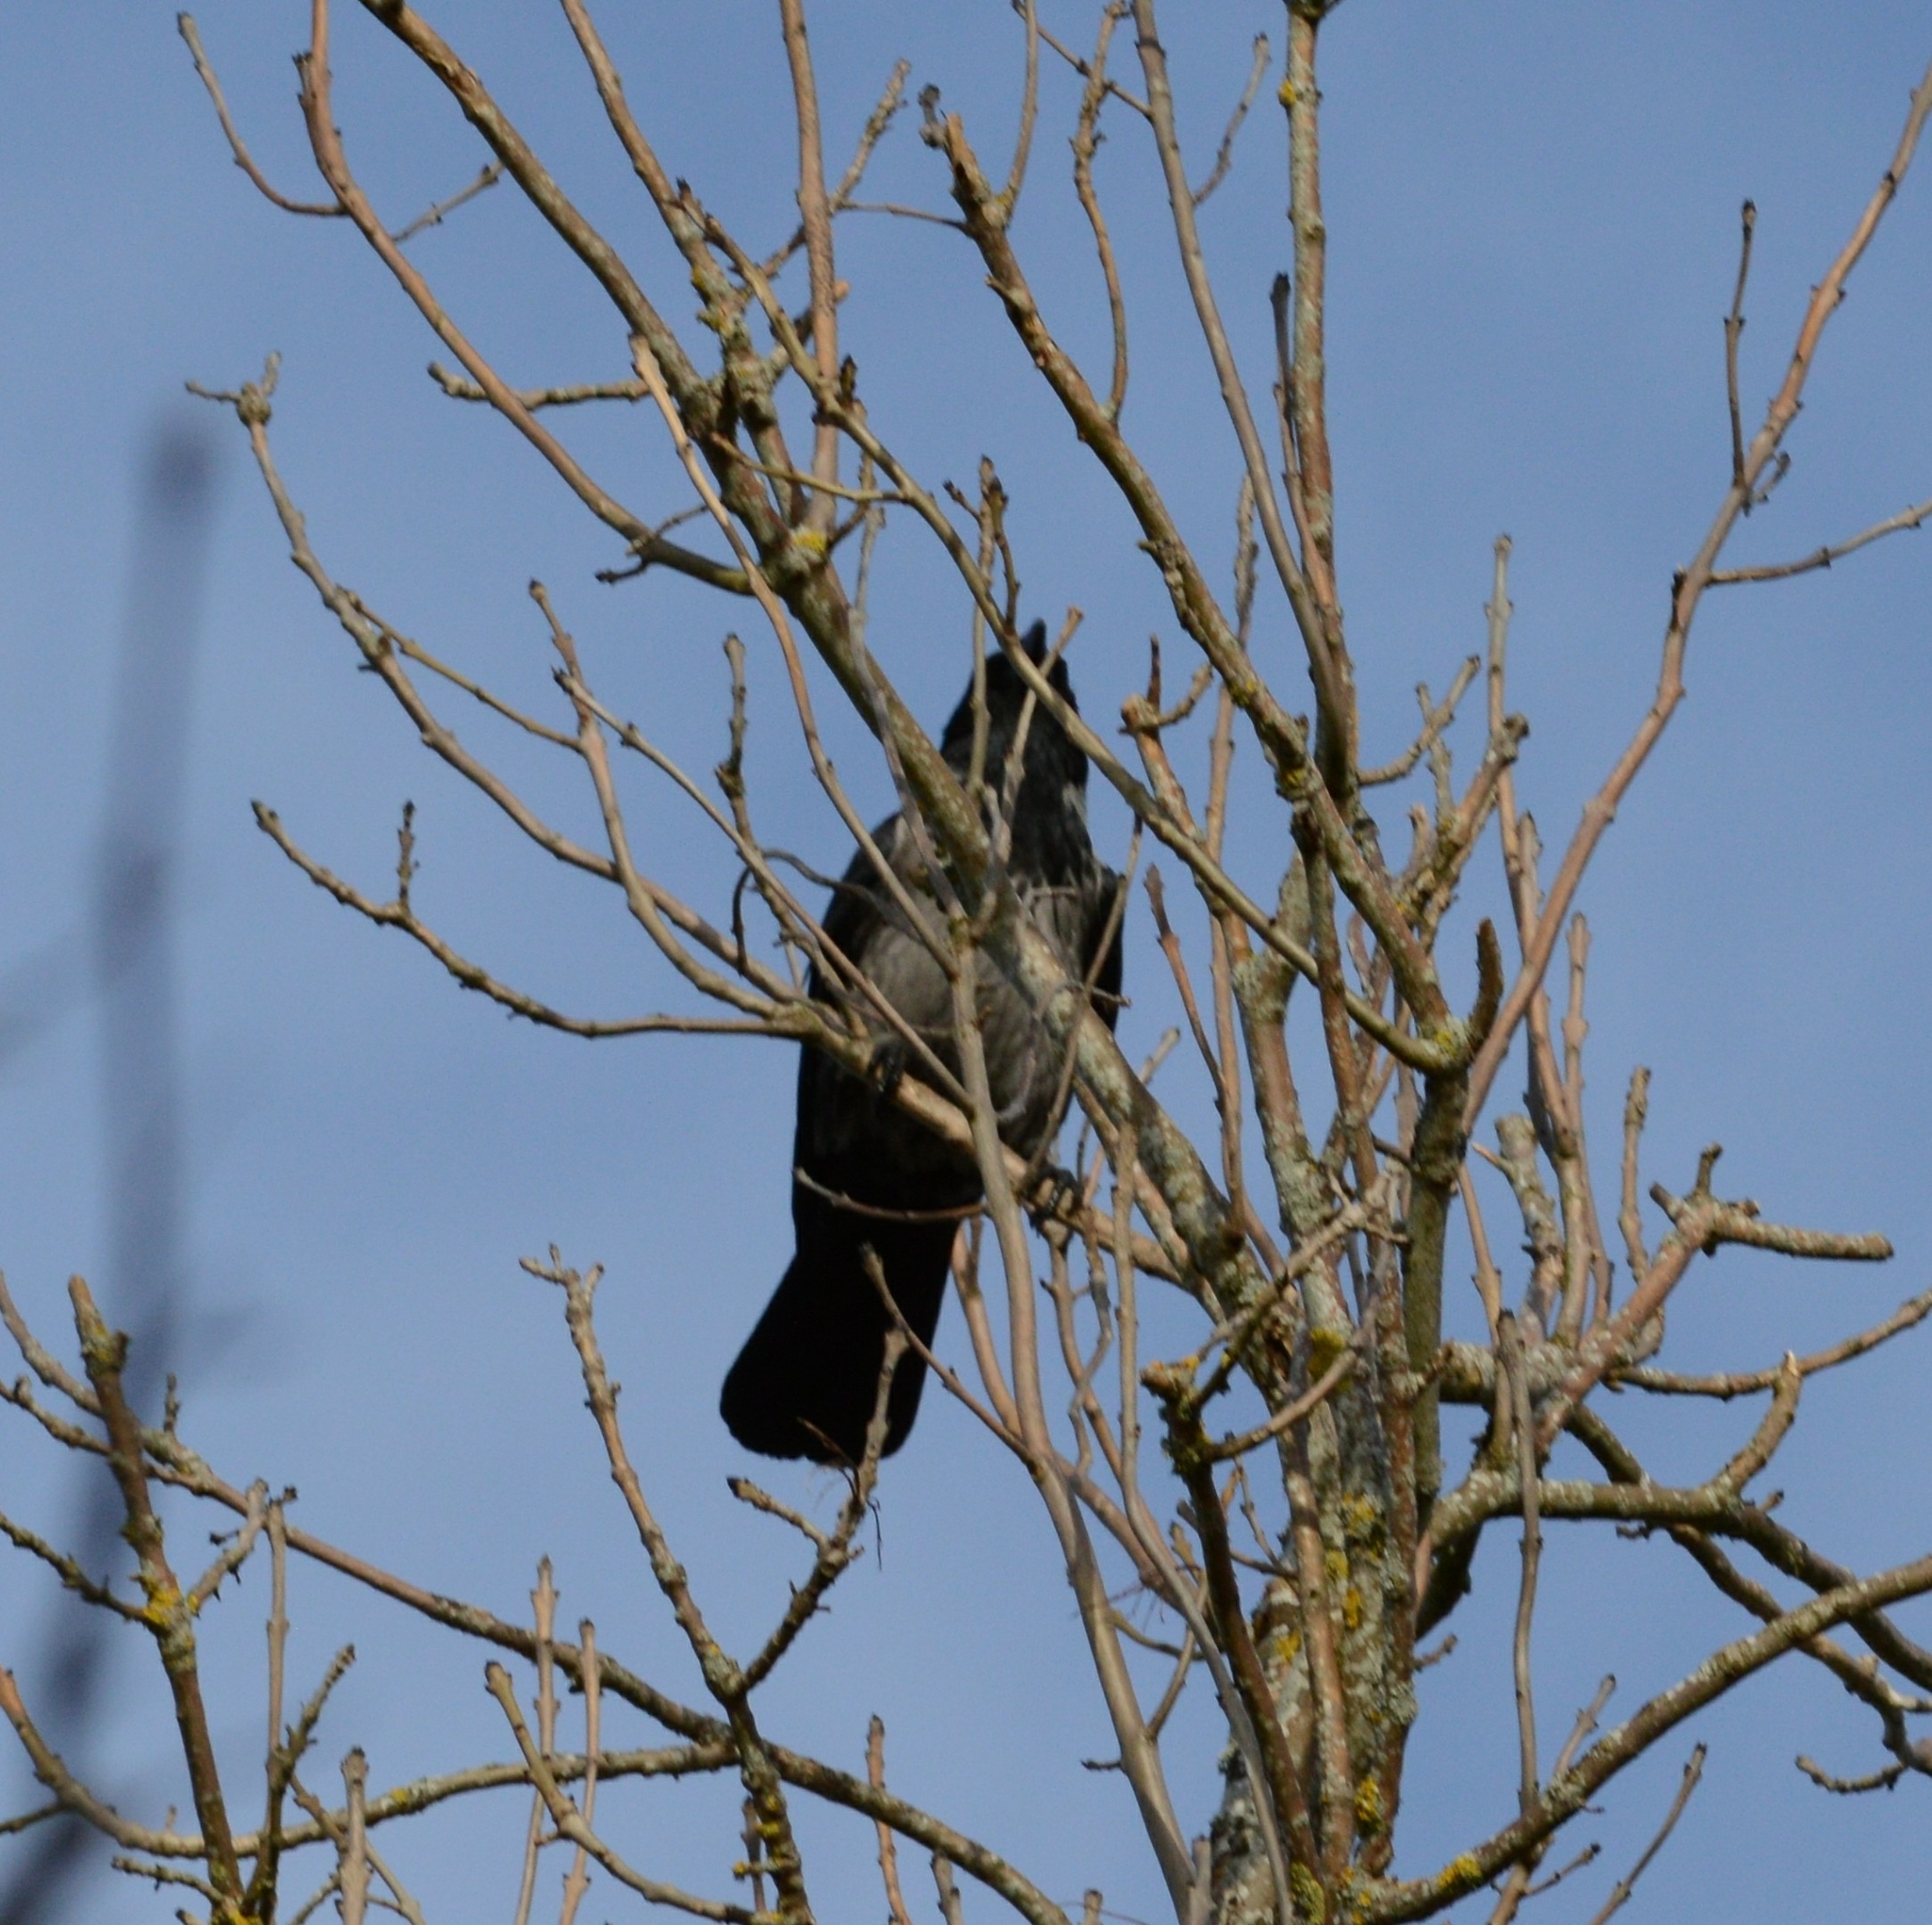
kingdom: Animalia
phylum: Chordata
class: Aves
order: Passeriformes
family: Corvidae
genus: Corvus
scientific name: Corvus cornix
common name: Hooded crow
